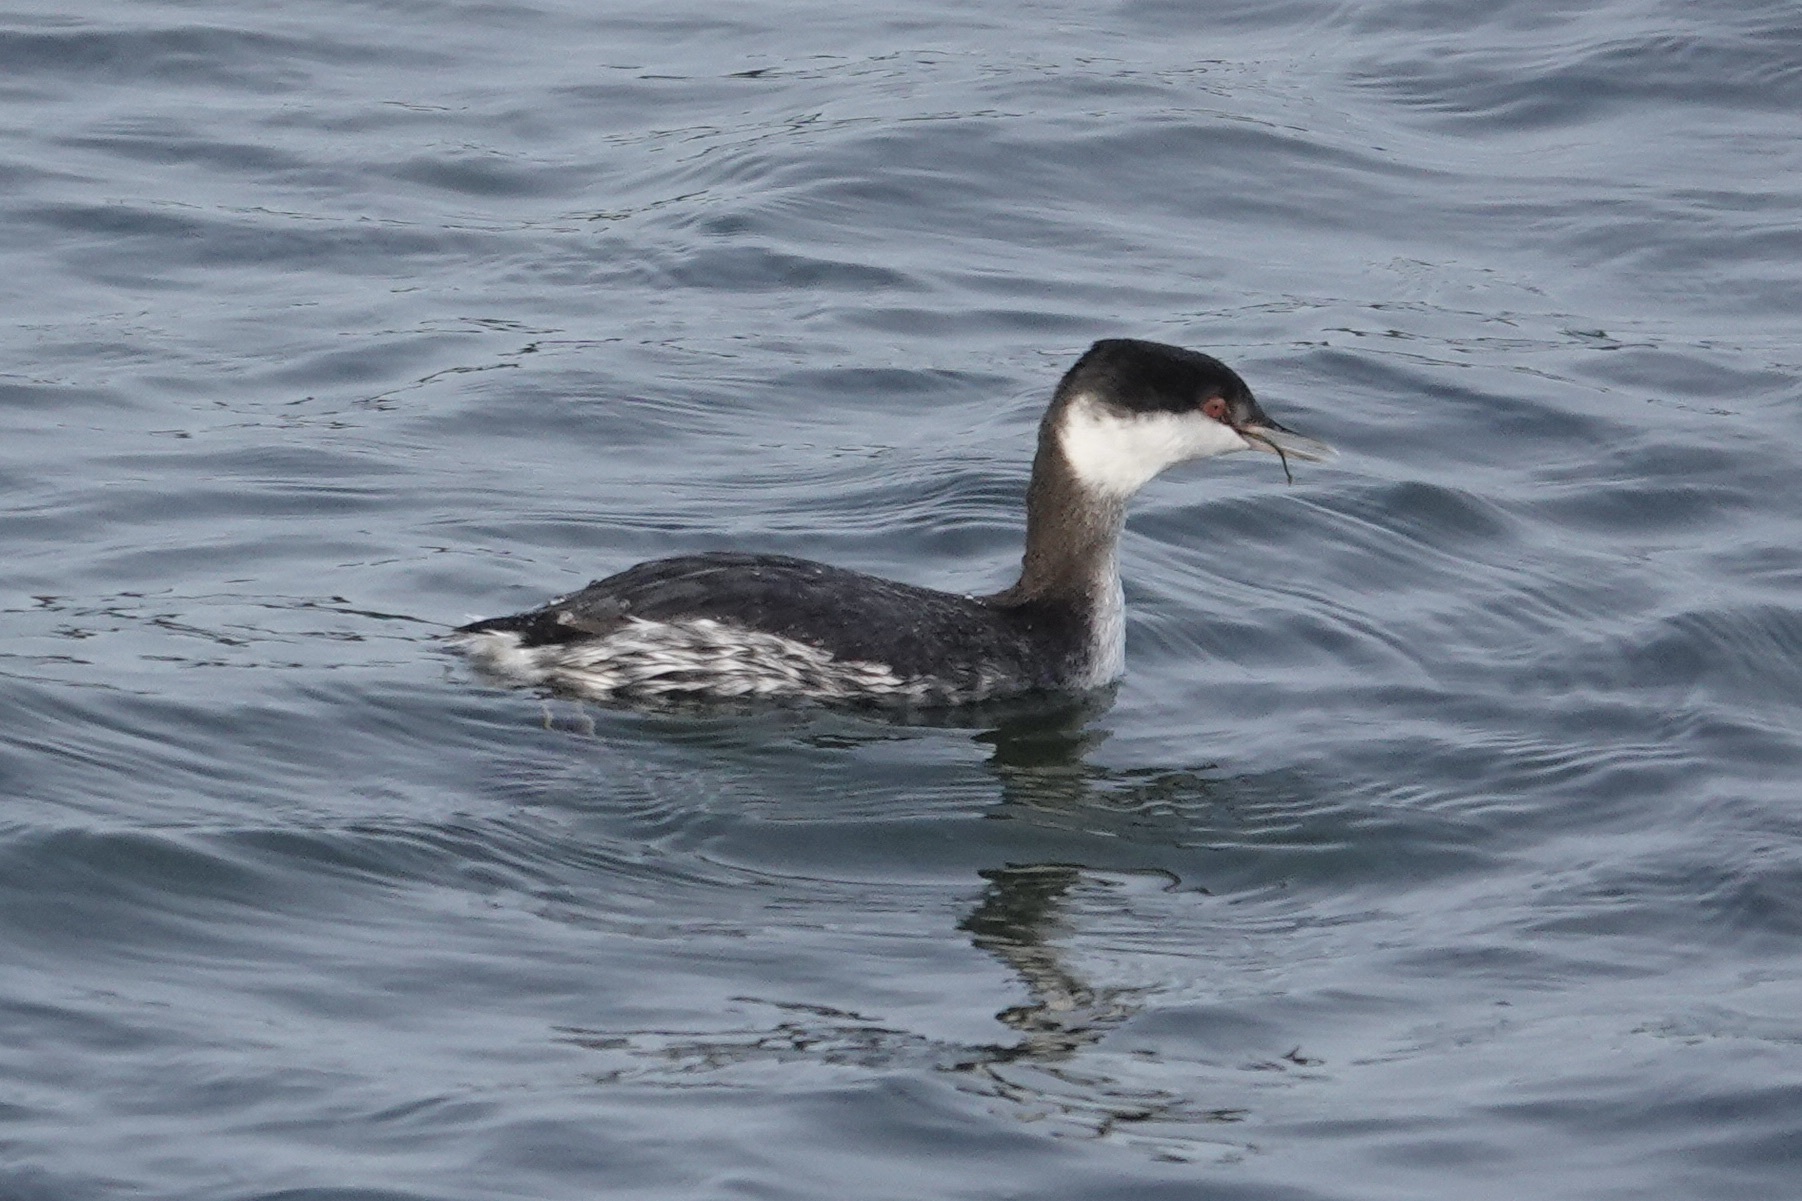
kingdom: Animalia
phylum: Chordata
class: Aves
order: Podicipediformes
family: Podicipedidae
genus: Podiceps
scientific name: Podiceps auritus
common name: Horned grebe
